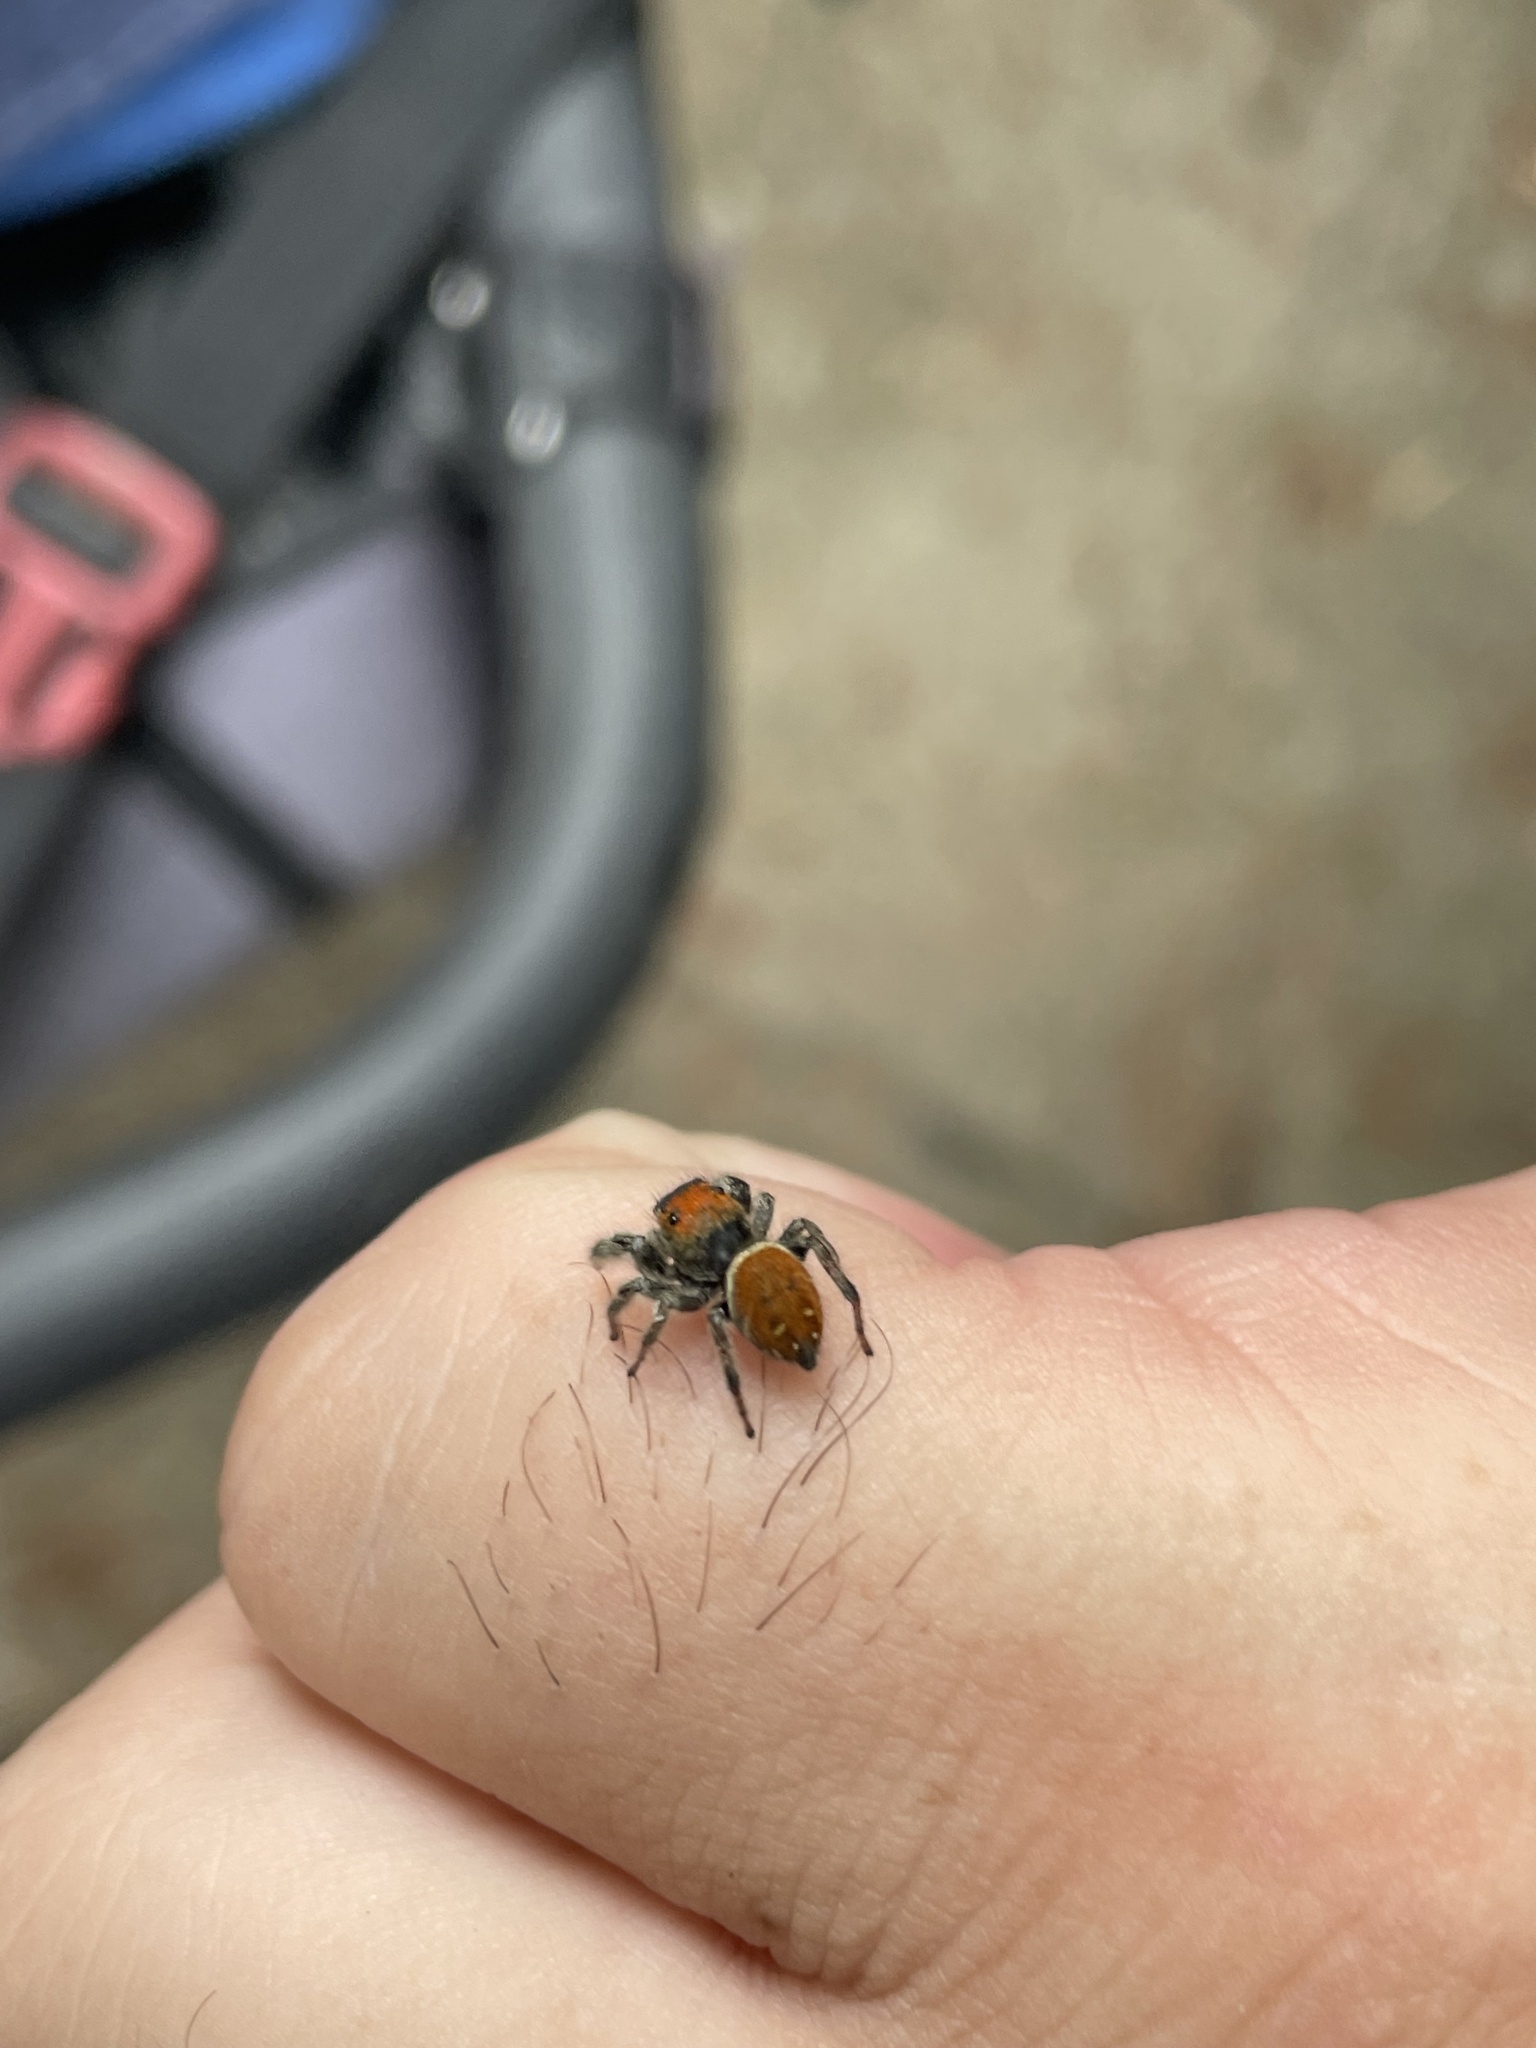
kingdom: Animalia
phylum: Arthropoda
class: Arachnida
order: Araneae
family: Salticidae
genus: Phidippus
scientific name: Phidippus whitmani
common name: Whitman's jumping spider
